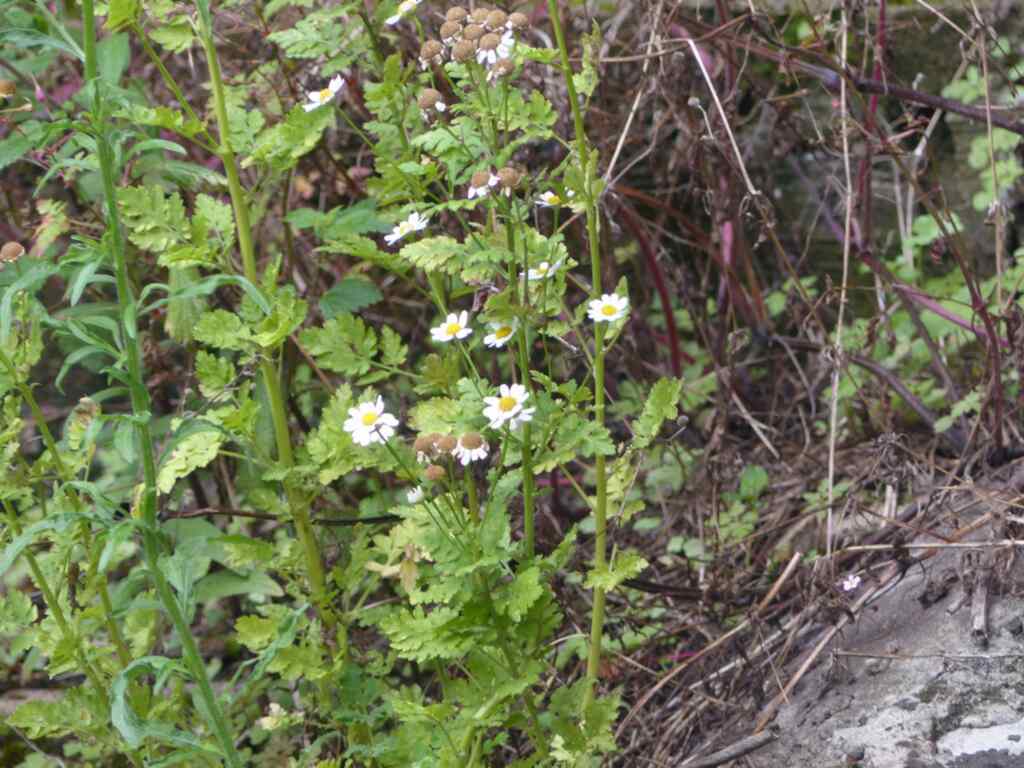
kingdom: Plantae
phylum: Tracheophyta
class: Magnoliopsida
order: Asterales
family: Asteraceae
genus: Tanacetum
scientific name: Tanacetum parthenium
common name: Feverfew
